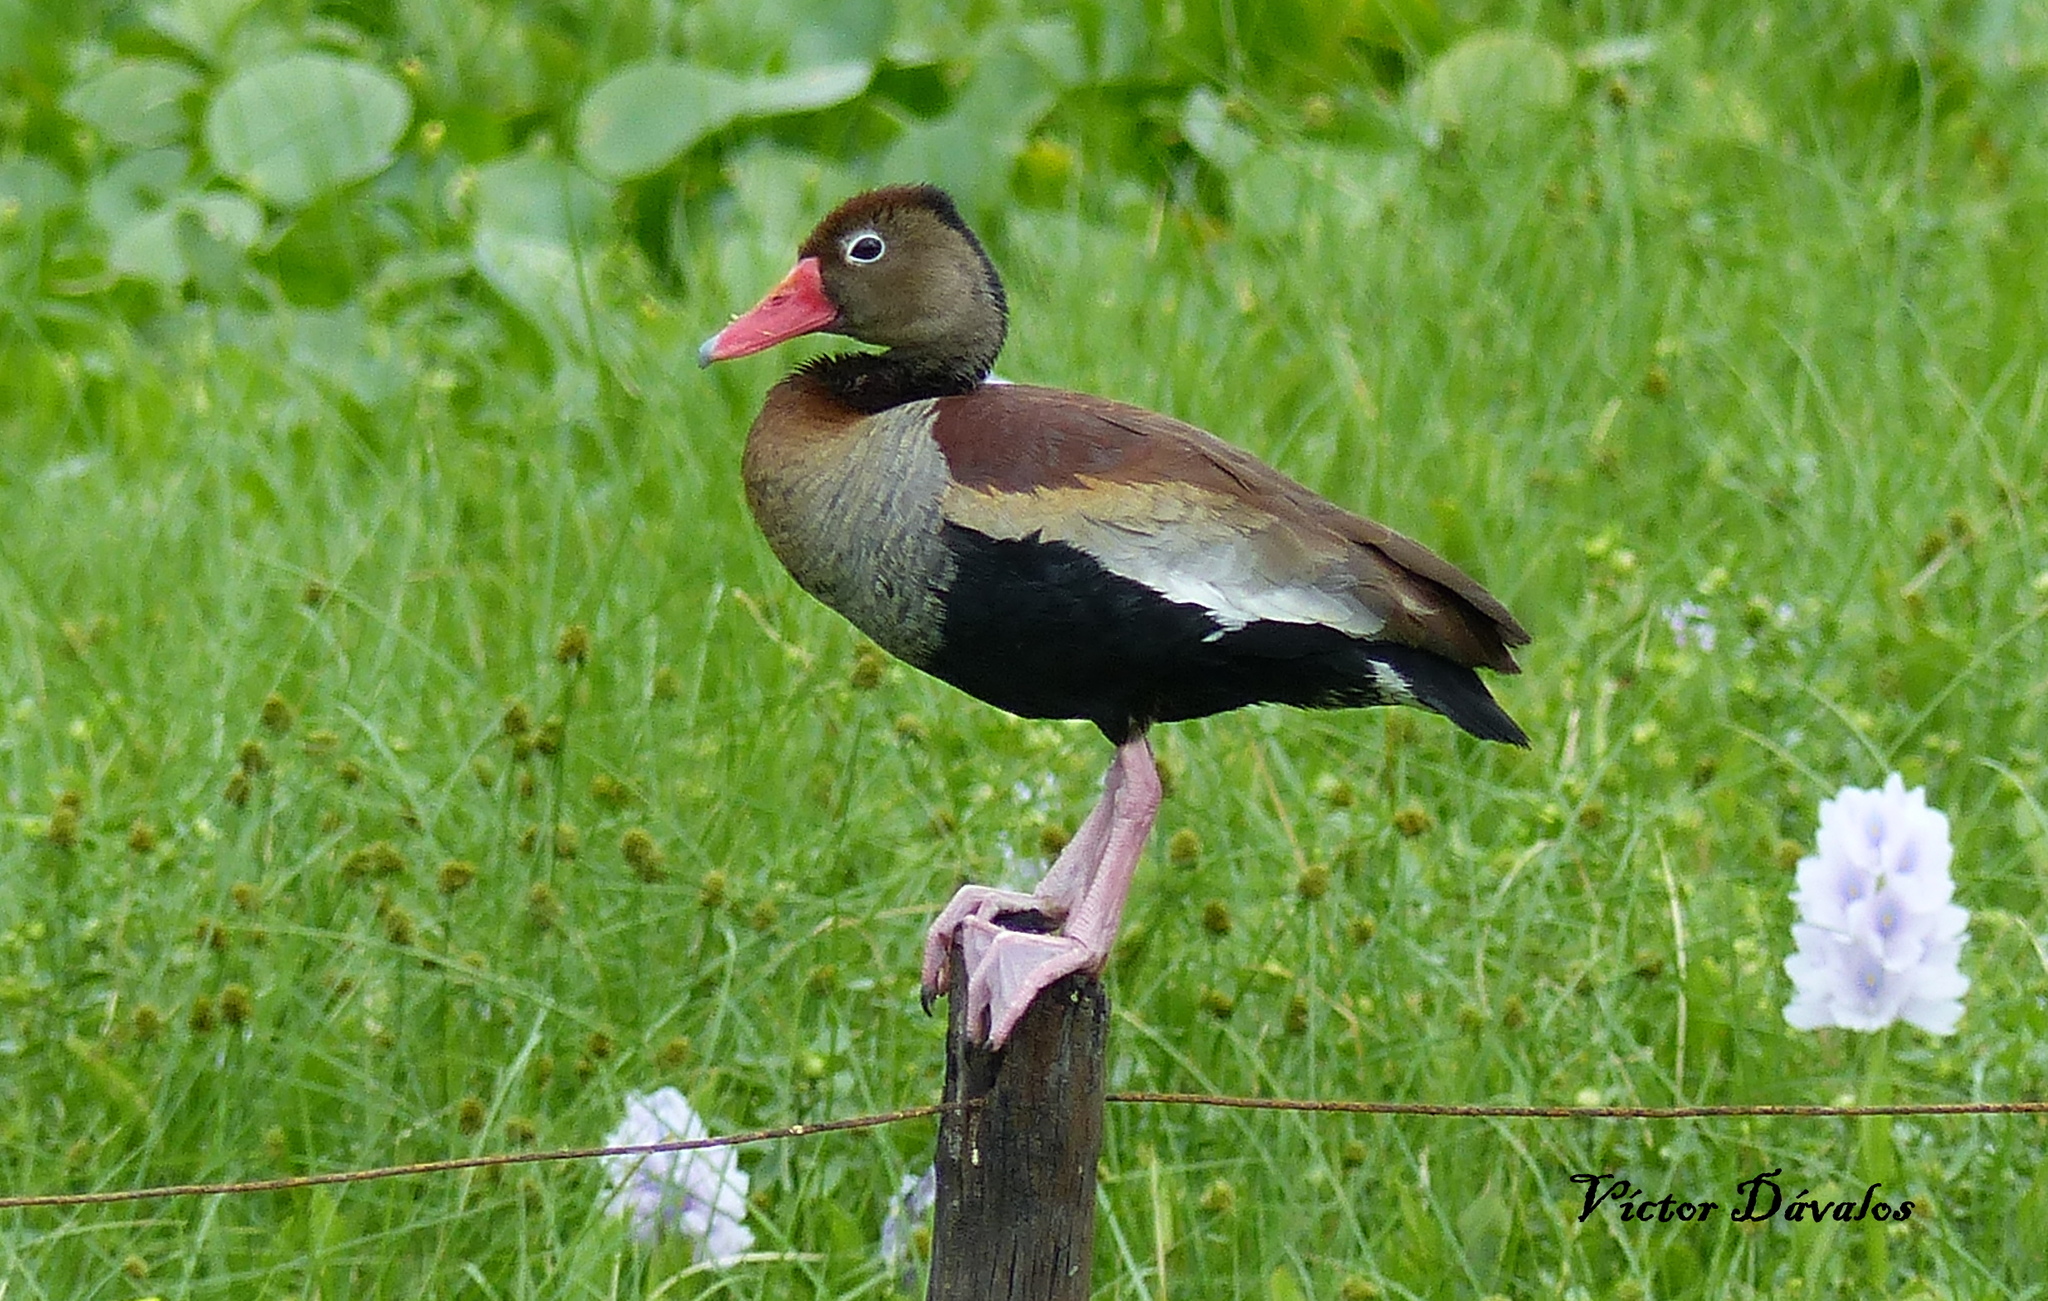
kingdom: Animalia
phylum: Chordata
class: Aves
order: Anseriformes
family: Anatidae
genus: Dendrocygna
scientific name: Dendrocygna autumnalis
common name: Black-bellied whistling duck
